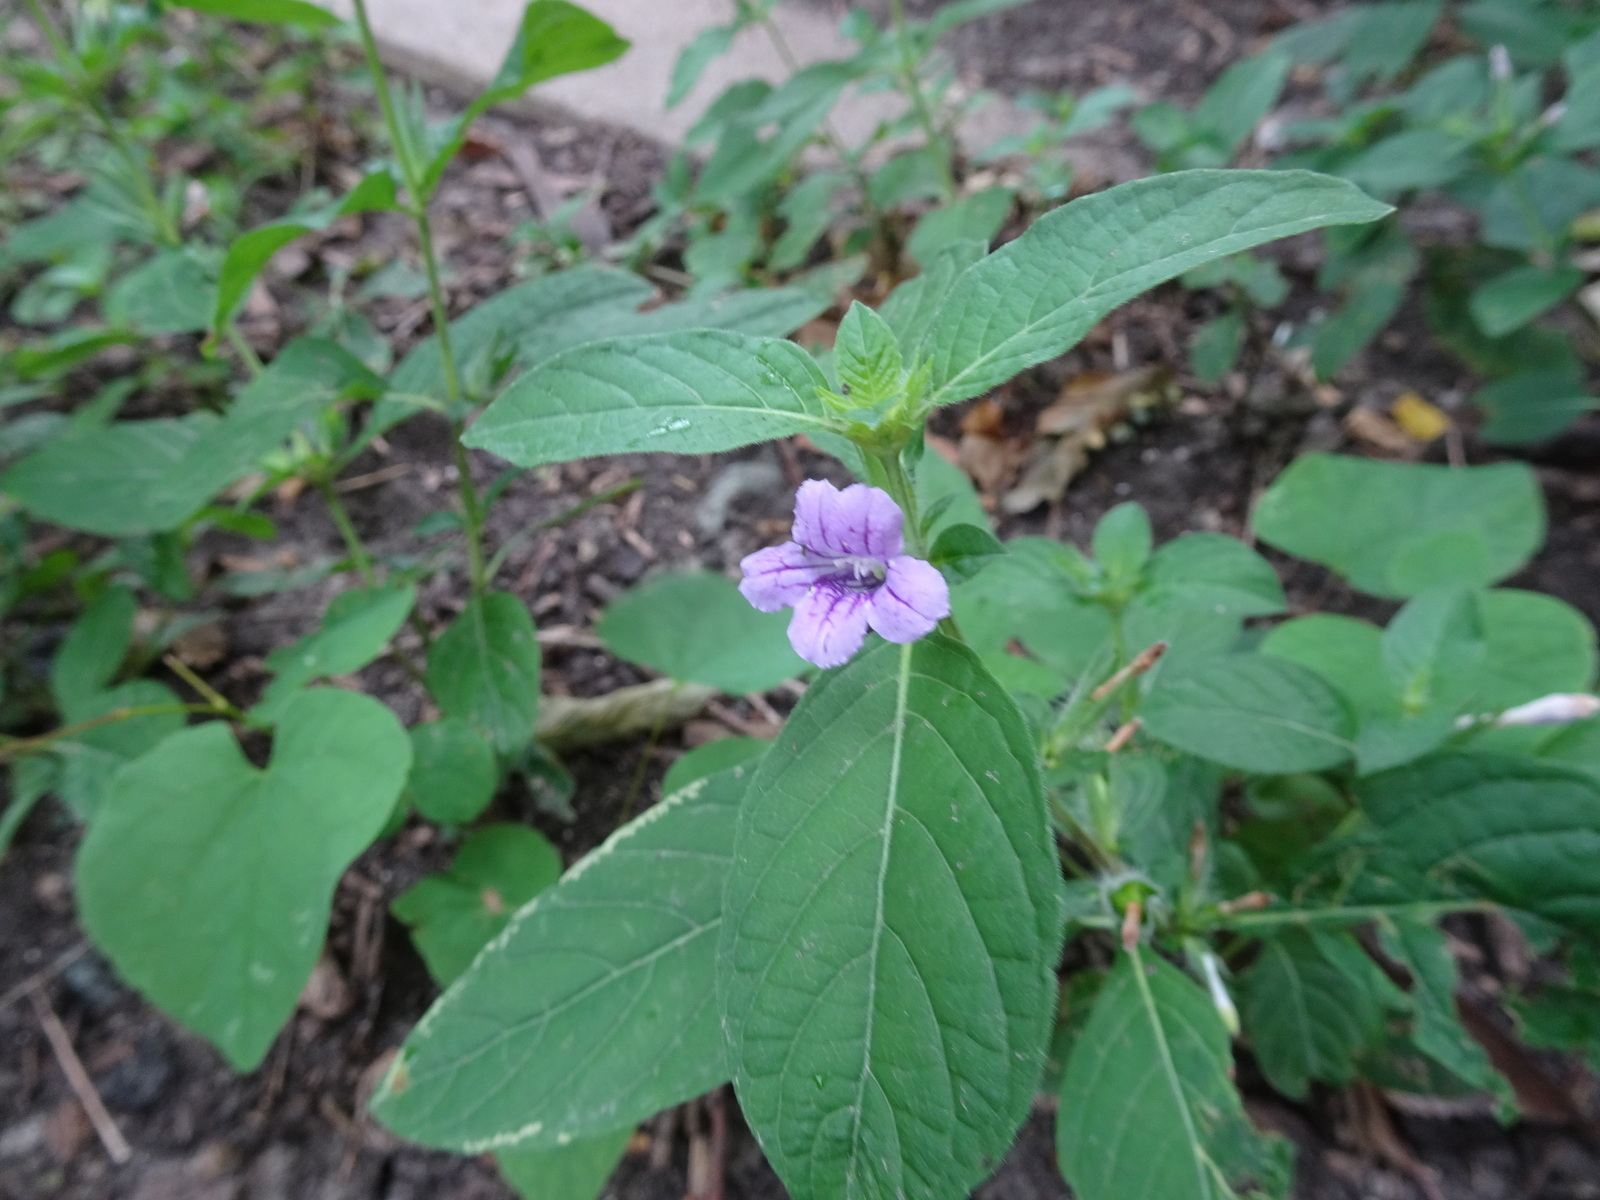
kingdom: Plantae
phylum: Tracheophyta
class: Magnoliopsida
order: Lamiales
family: Acanthaceae
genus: Ruellia
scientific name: Ruellia strepens
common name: Limestone wild petunia
